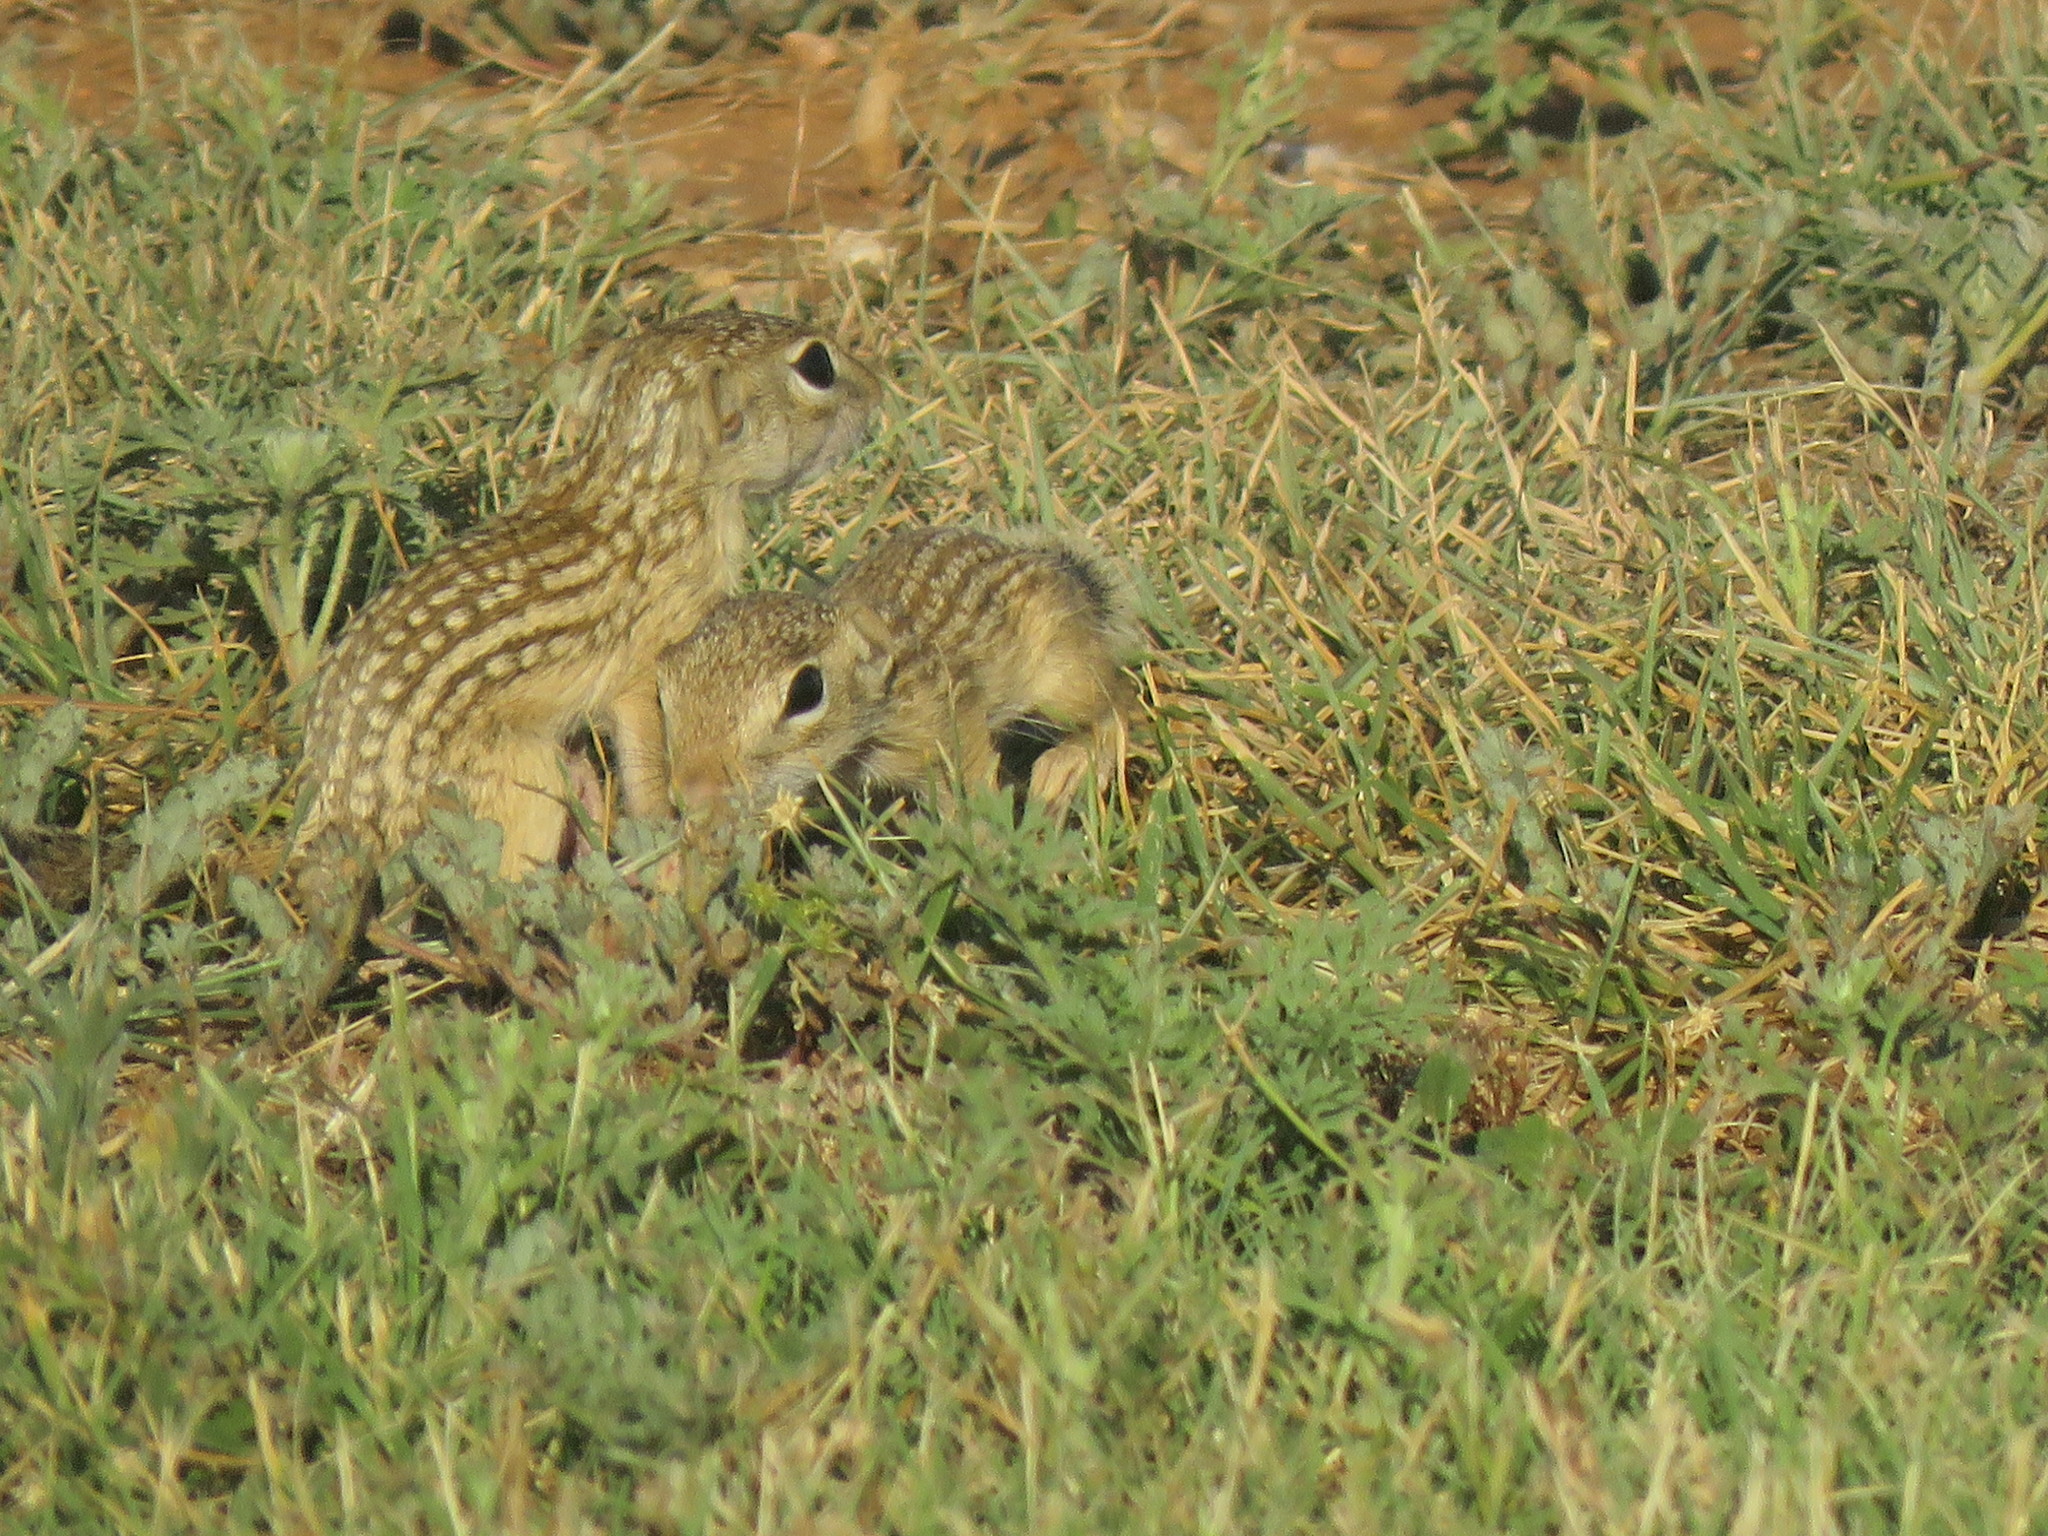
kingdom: Animalia
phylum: Chordata
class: Mammalia
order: Rodentia
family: Sciuridae
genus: Ictidomys
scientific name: Ictidomys parvidens
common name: Rio grande ground squirrel
